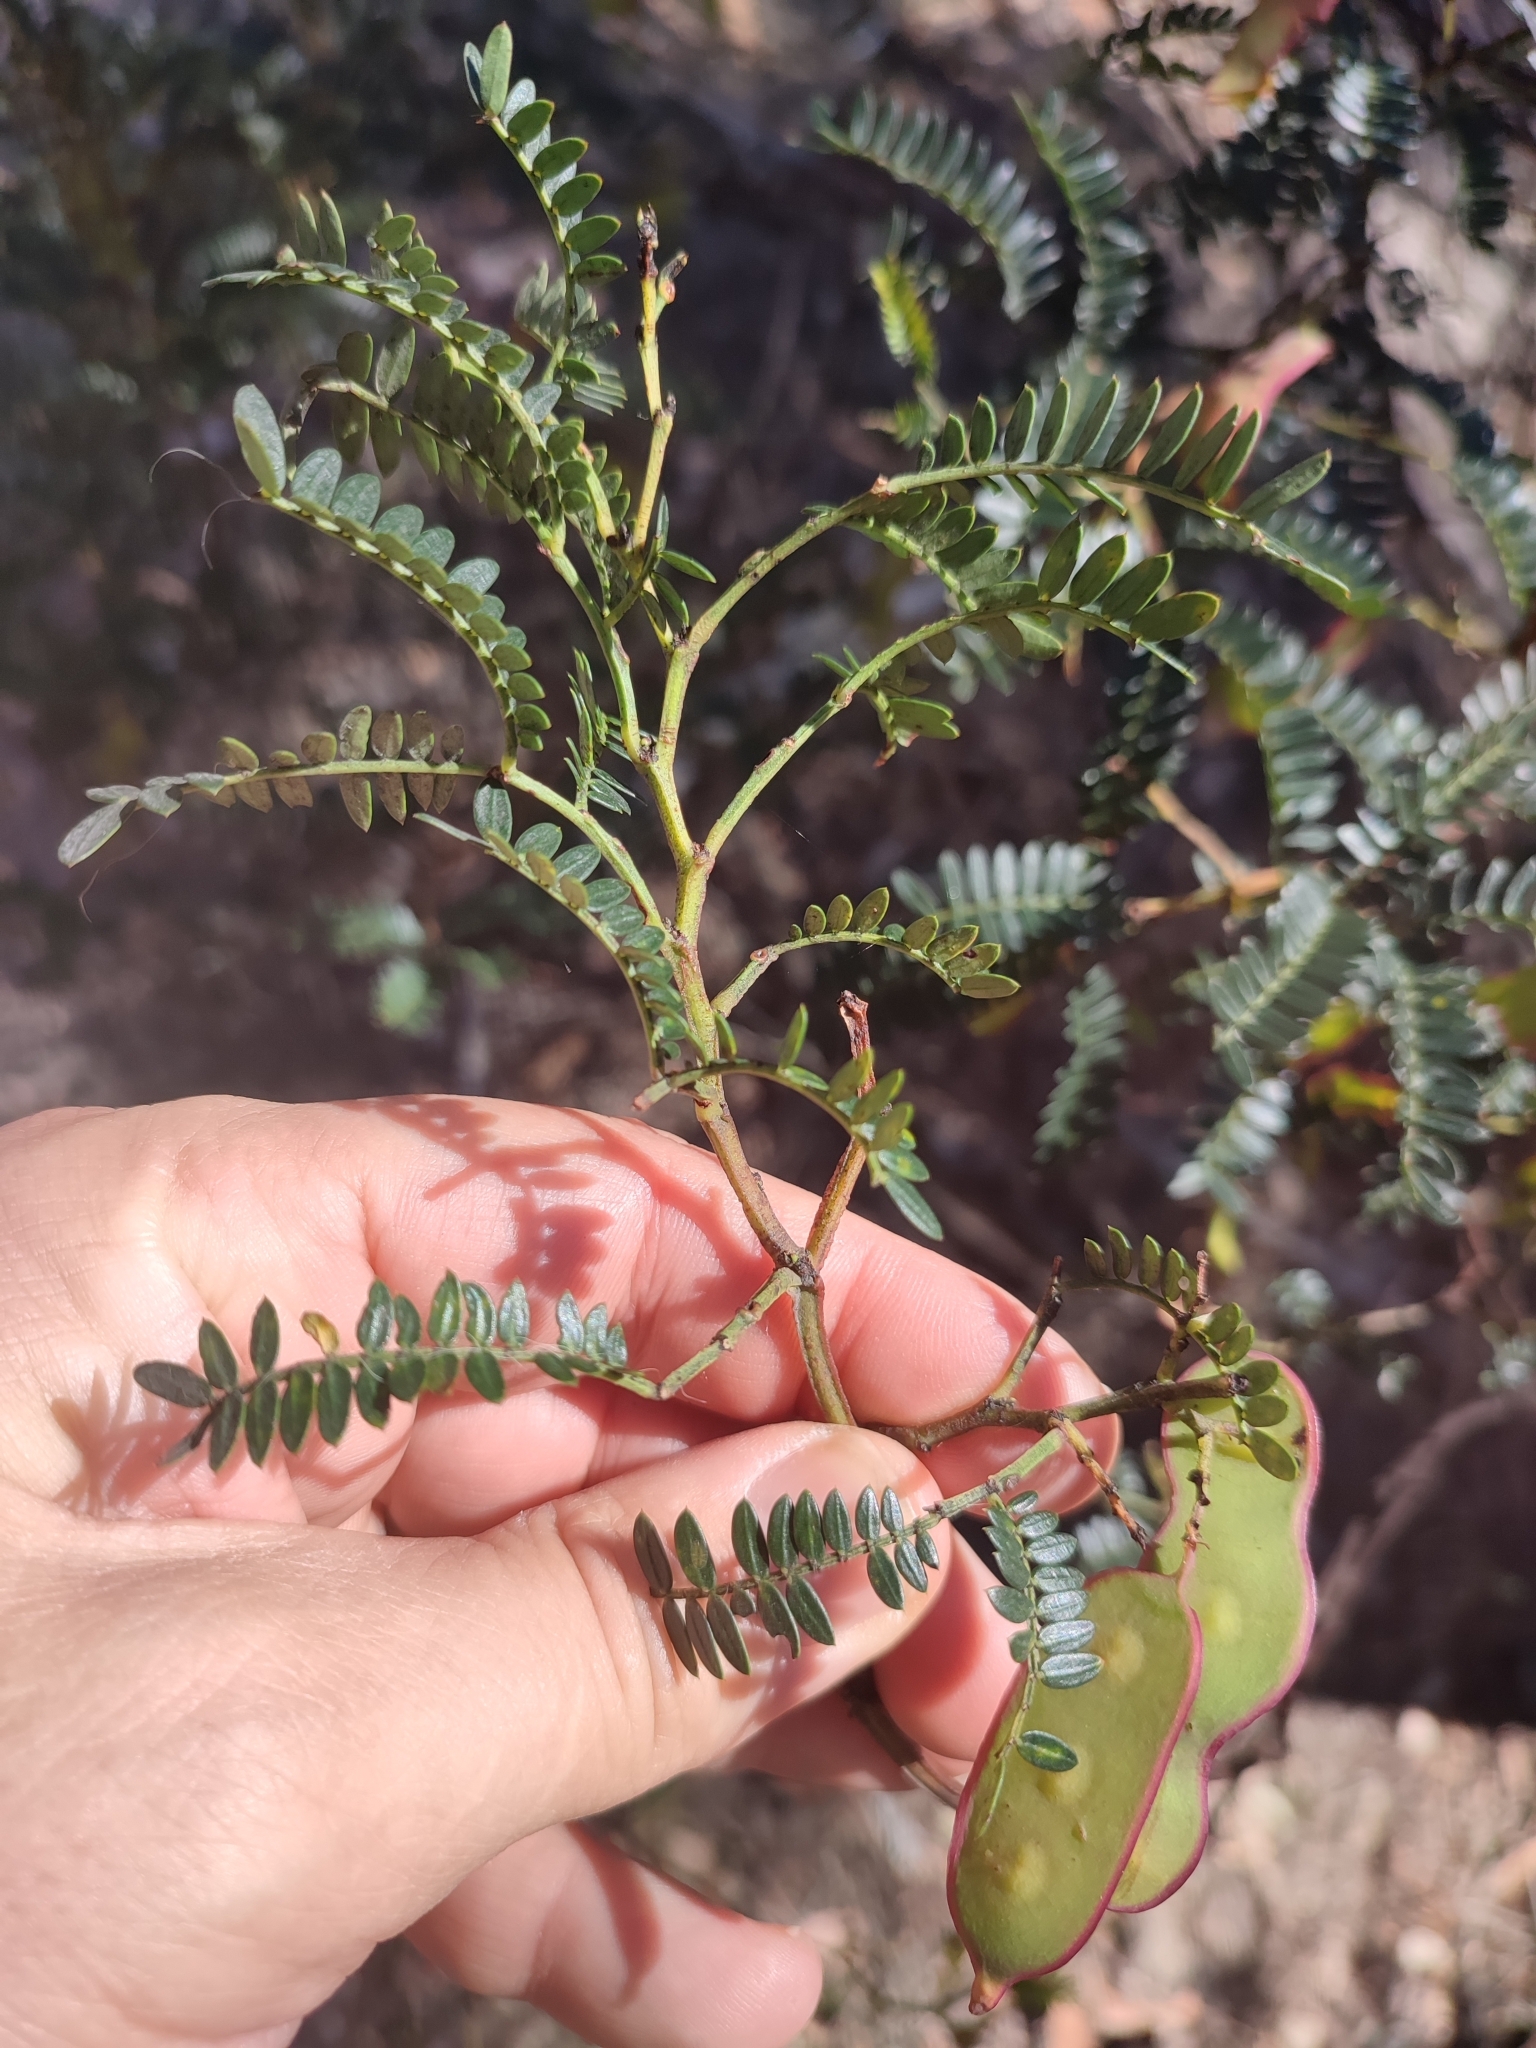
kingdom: Plantae
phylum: Tracheophyta
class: Magnoliopsida
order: Fabales
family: Fabaceae
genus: Acacia
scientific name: Acacia terminalis
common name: Cedar wattle
